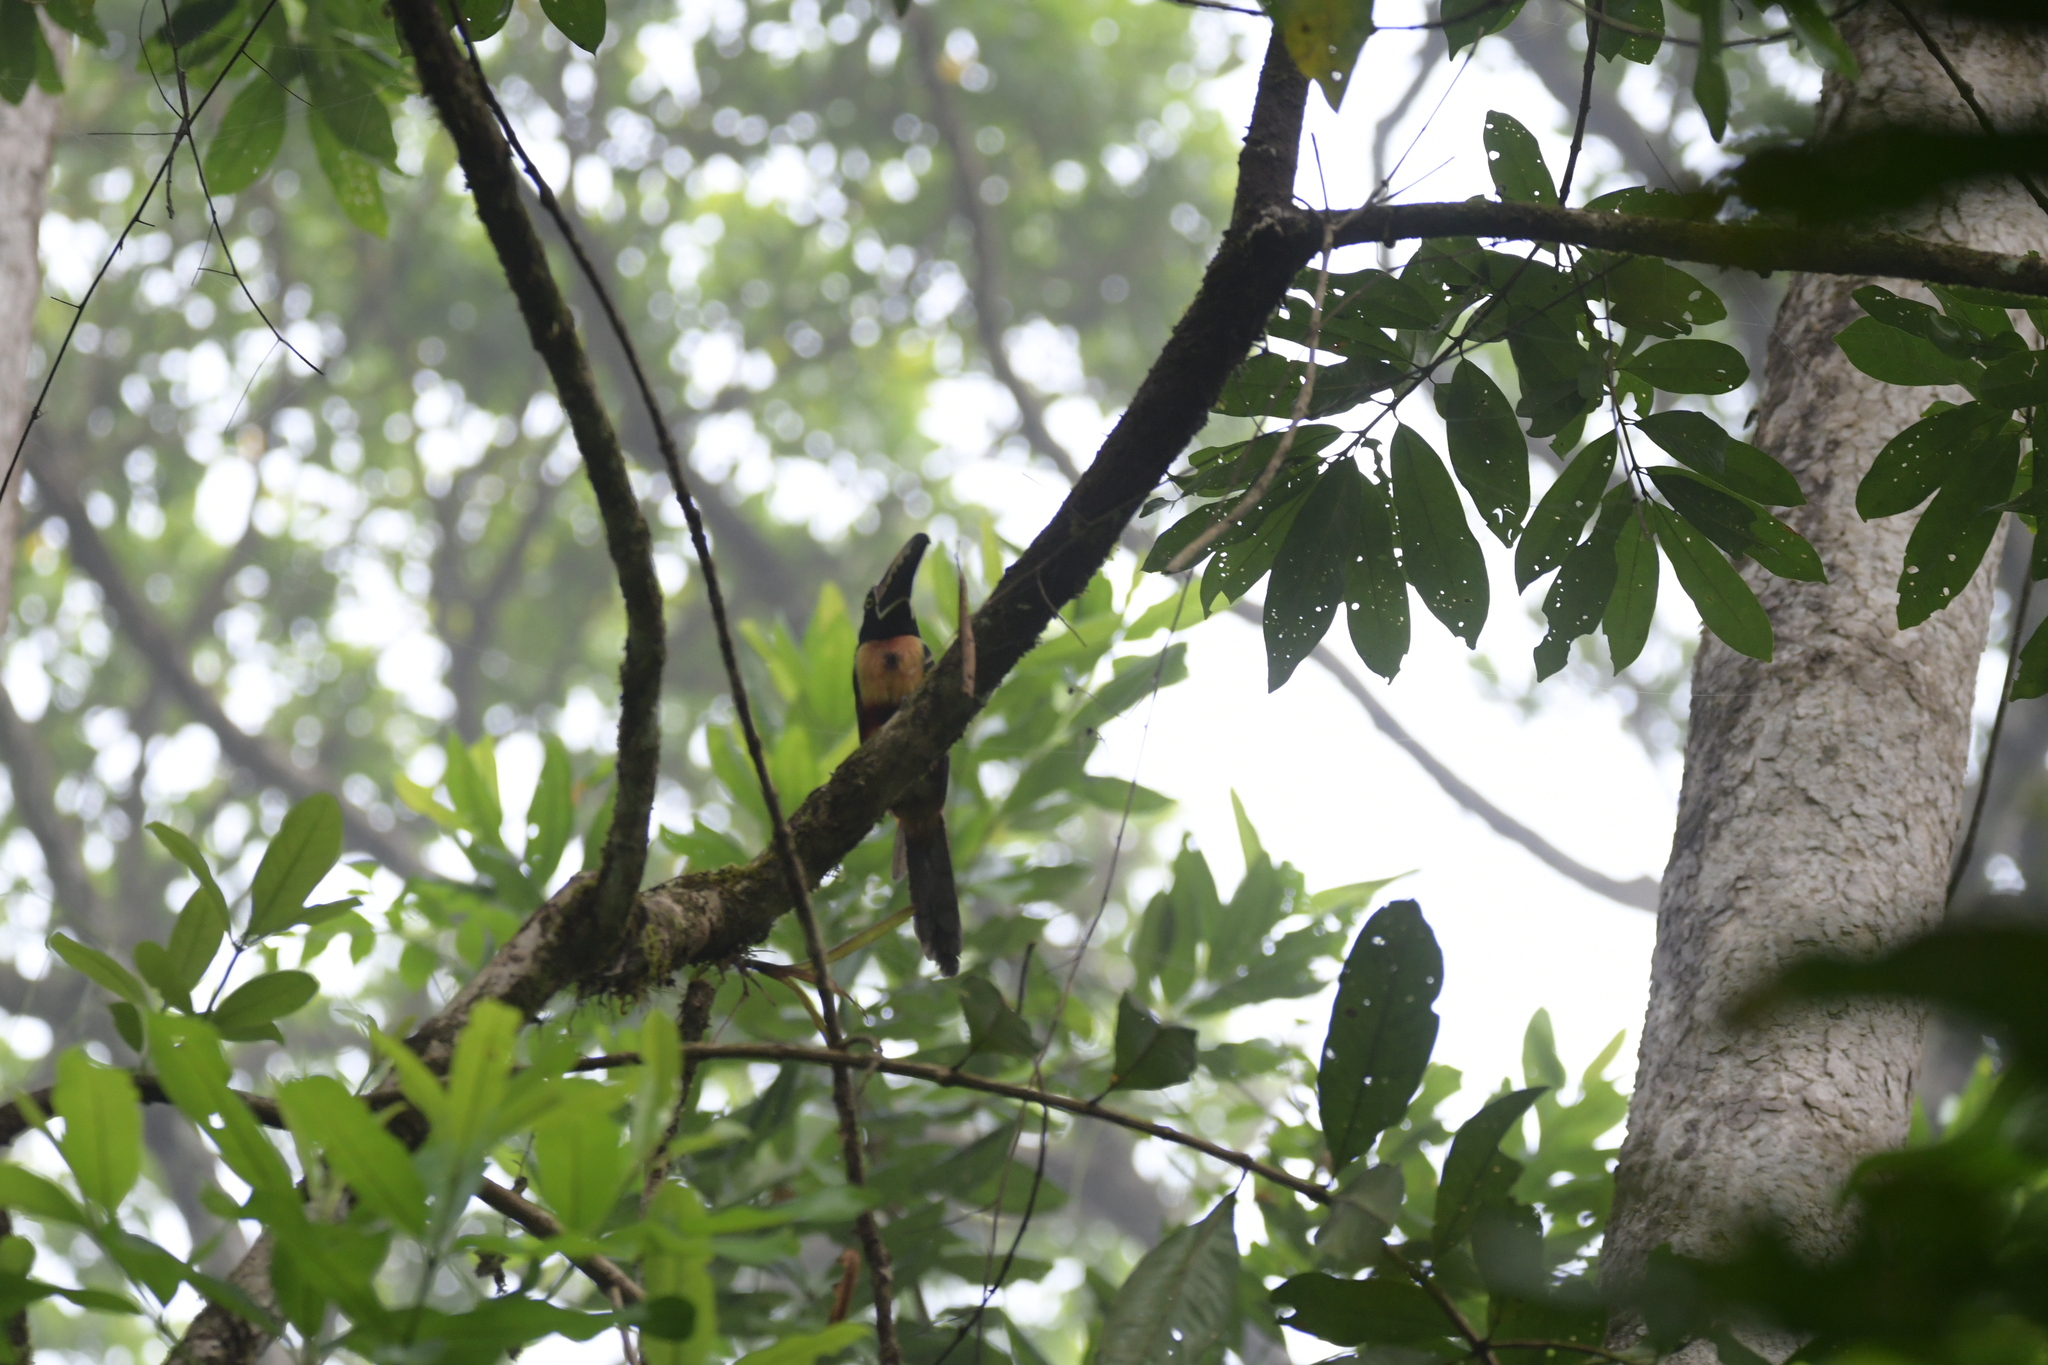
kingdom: Animalia
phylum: Chordata
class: Aves
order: Piciformes
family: Ramphastidae
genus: Pteroglossus
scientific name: Pteroglossus torquatus
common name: Collared aracari
